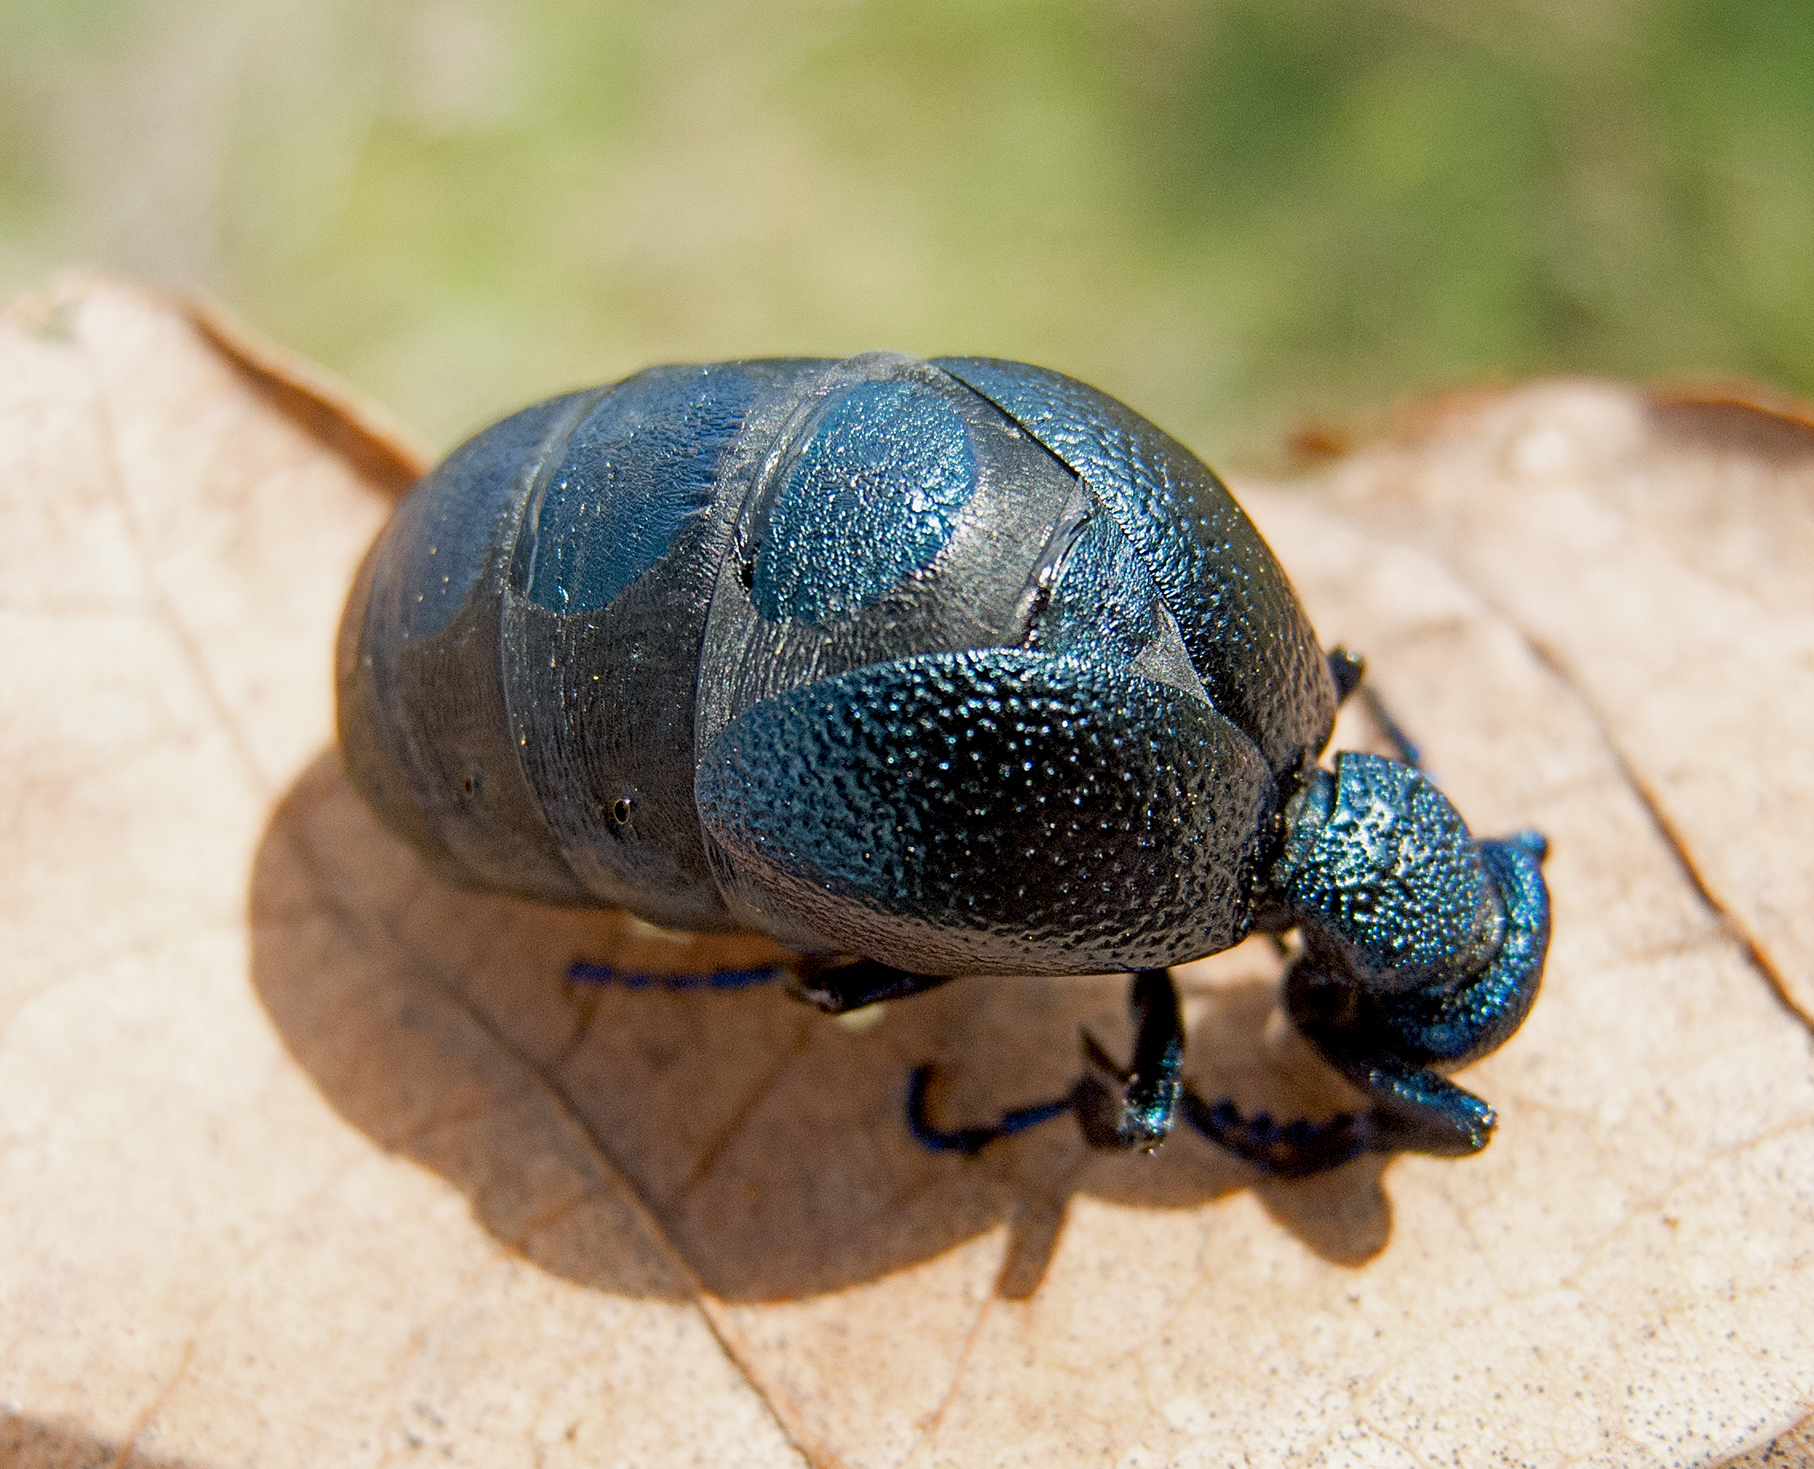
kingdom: Animalia
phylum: Arthropoda
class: Insecta
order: Coleoptera
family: Meloidae
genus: Meloe
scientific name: Meloe proscarabaeus
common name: Black oil-beetle
